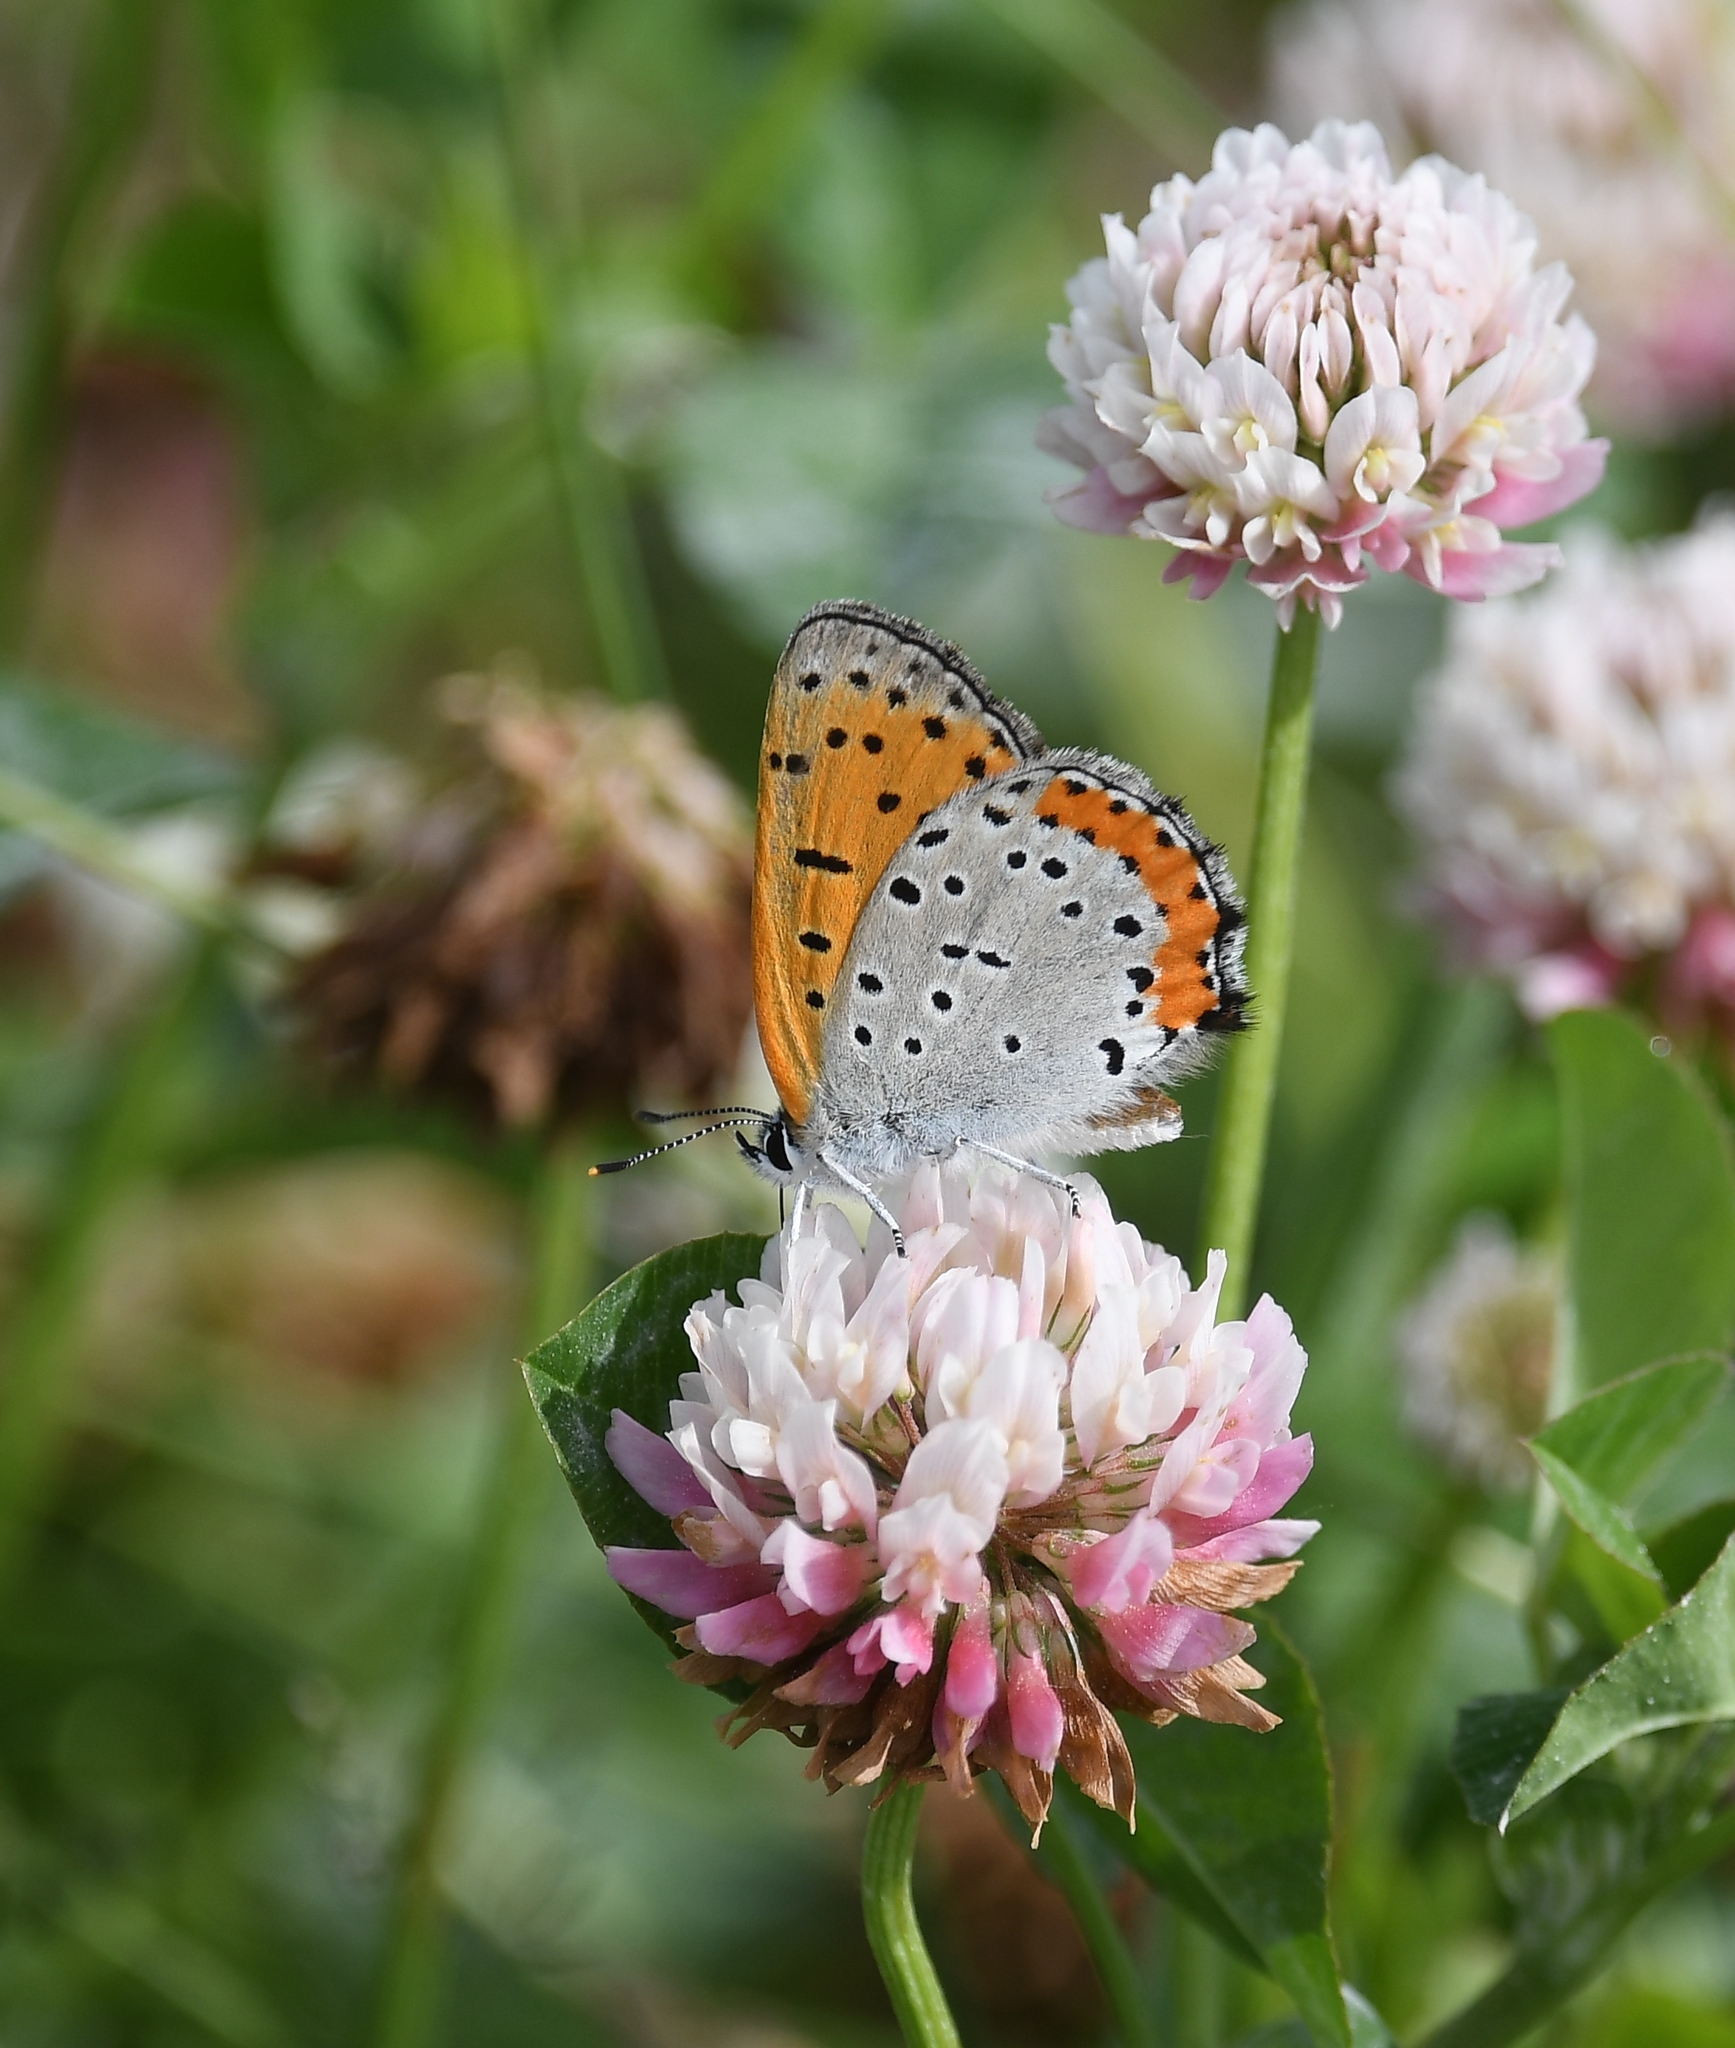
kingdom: Animalia
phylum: Arthropoda
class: Insecta
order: Lepidoptera
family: Lycaenidae
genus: Tharsalea
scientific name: Tharsalea hyllus
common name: Bronze copper
